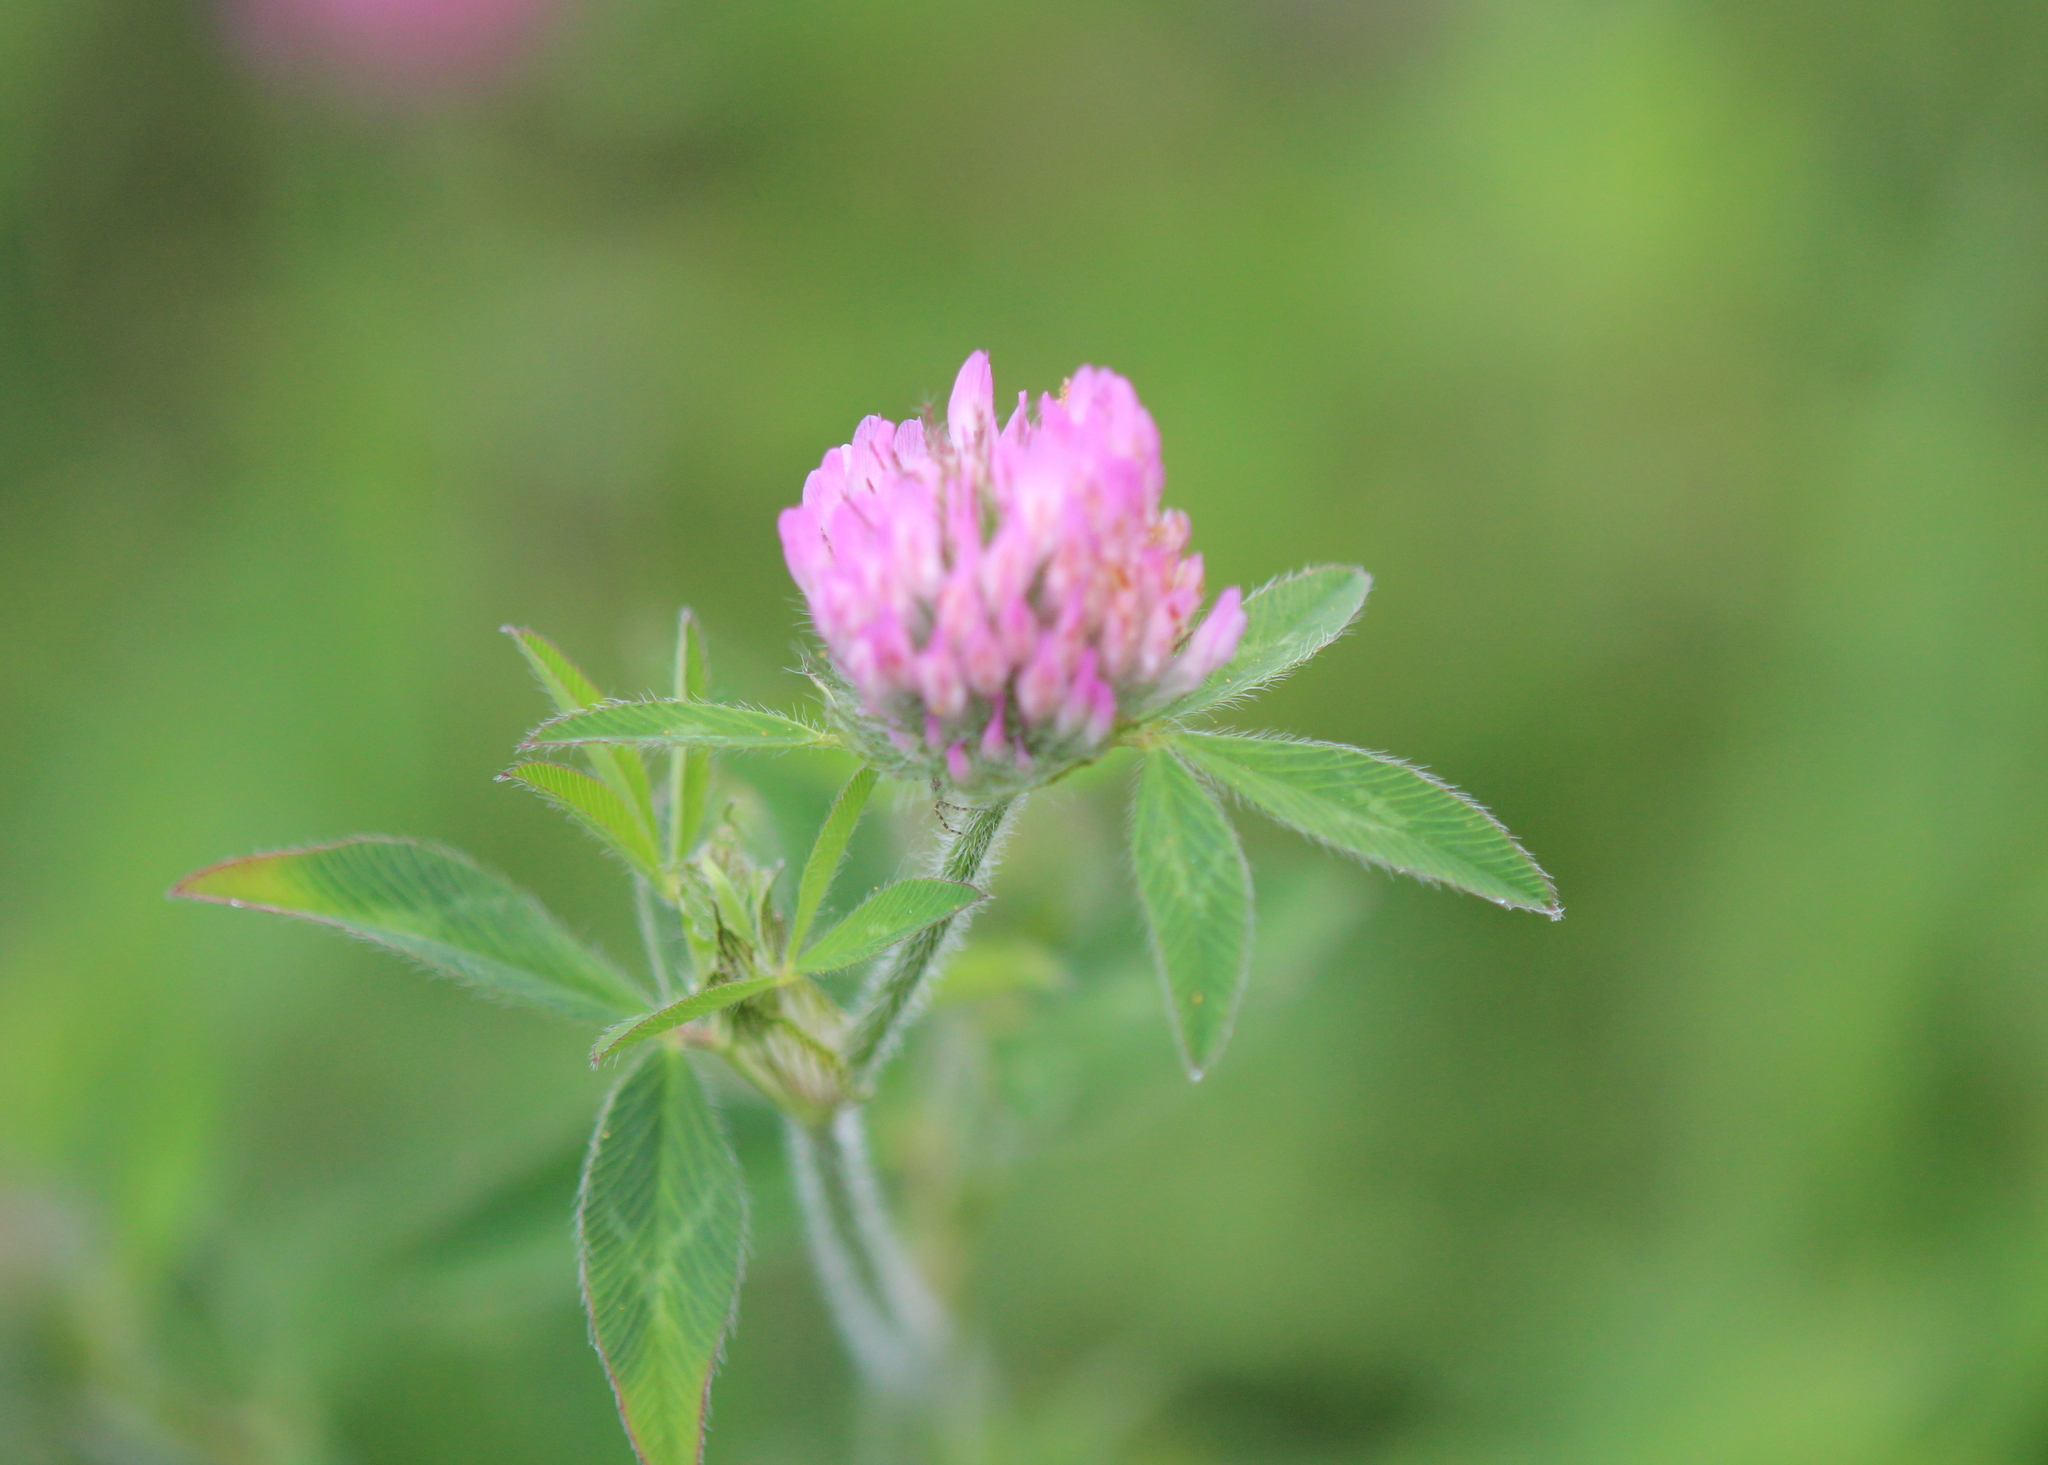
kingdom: Plantae
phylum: Tracheophyta
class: Magnoliopsida
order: Fabales
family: Fabaceae
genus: Trifolium
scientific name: Trifolium pratense
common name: Red clover
